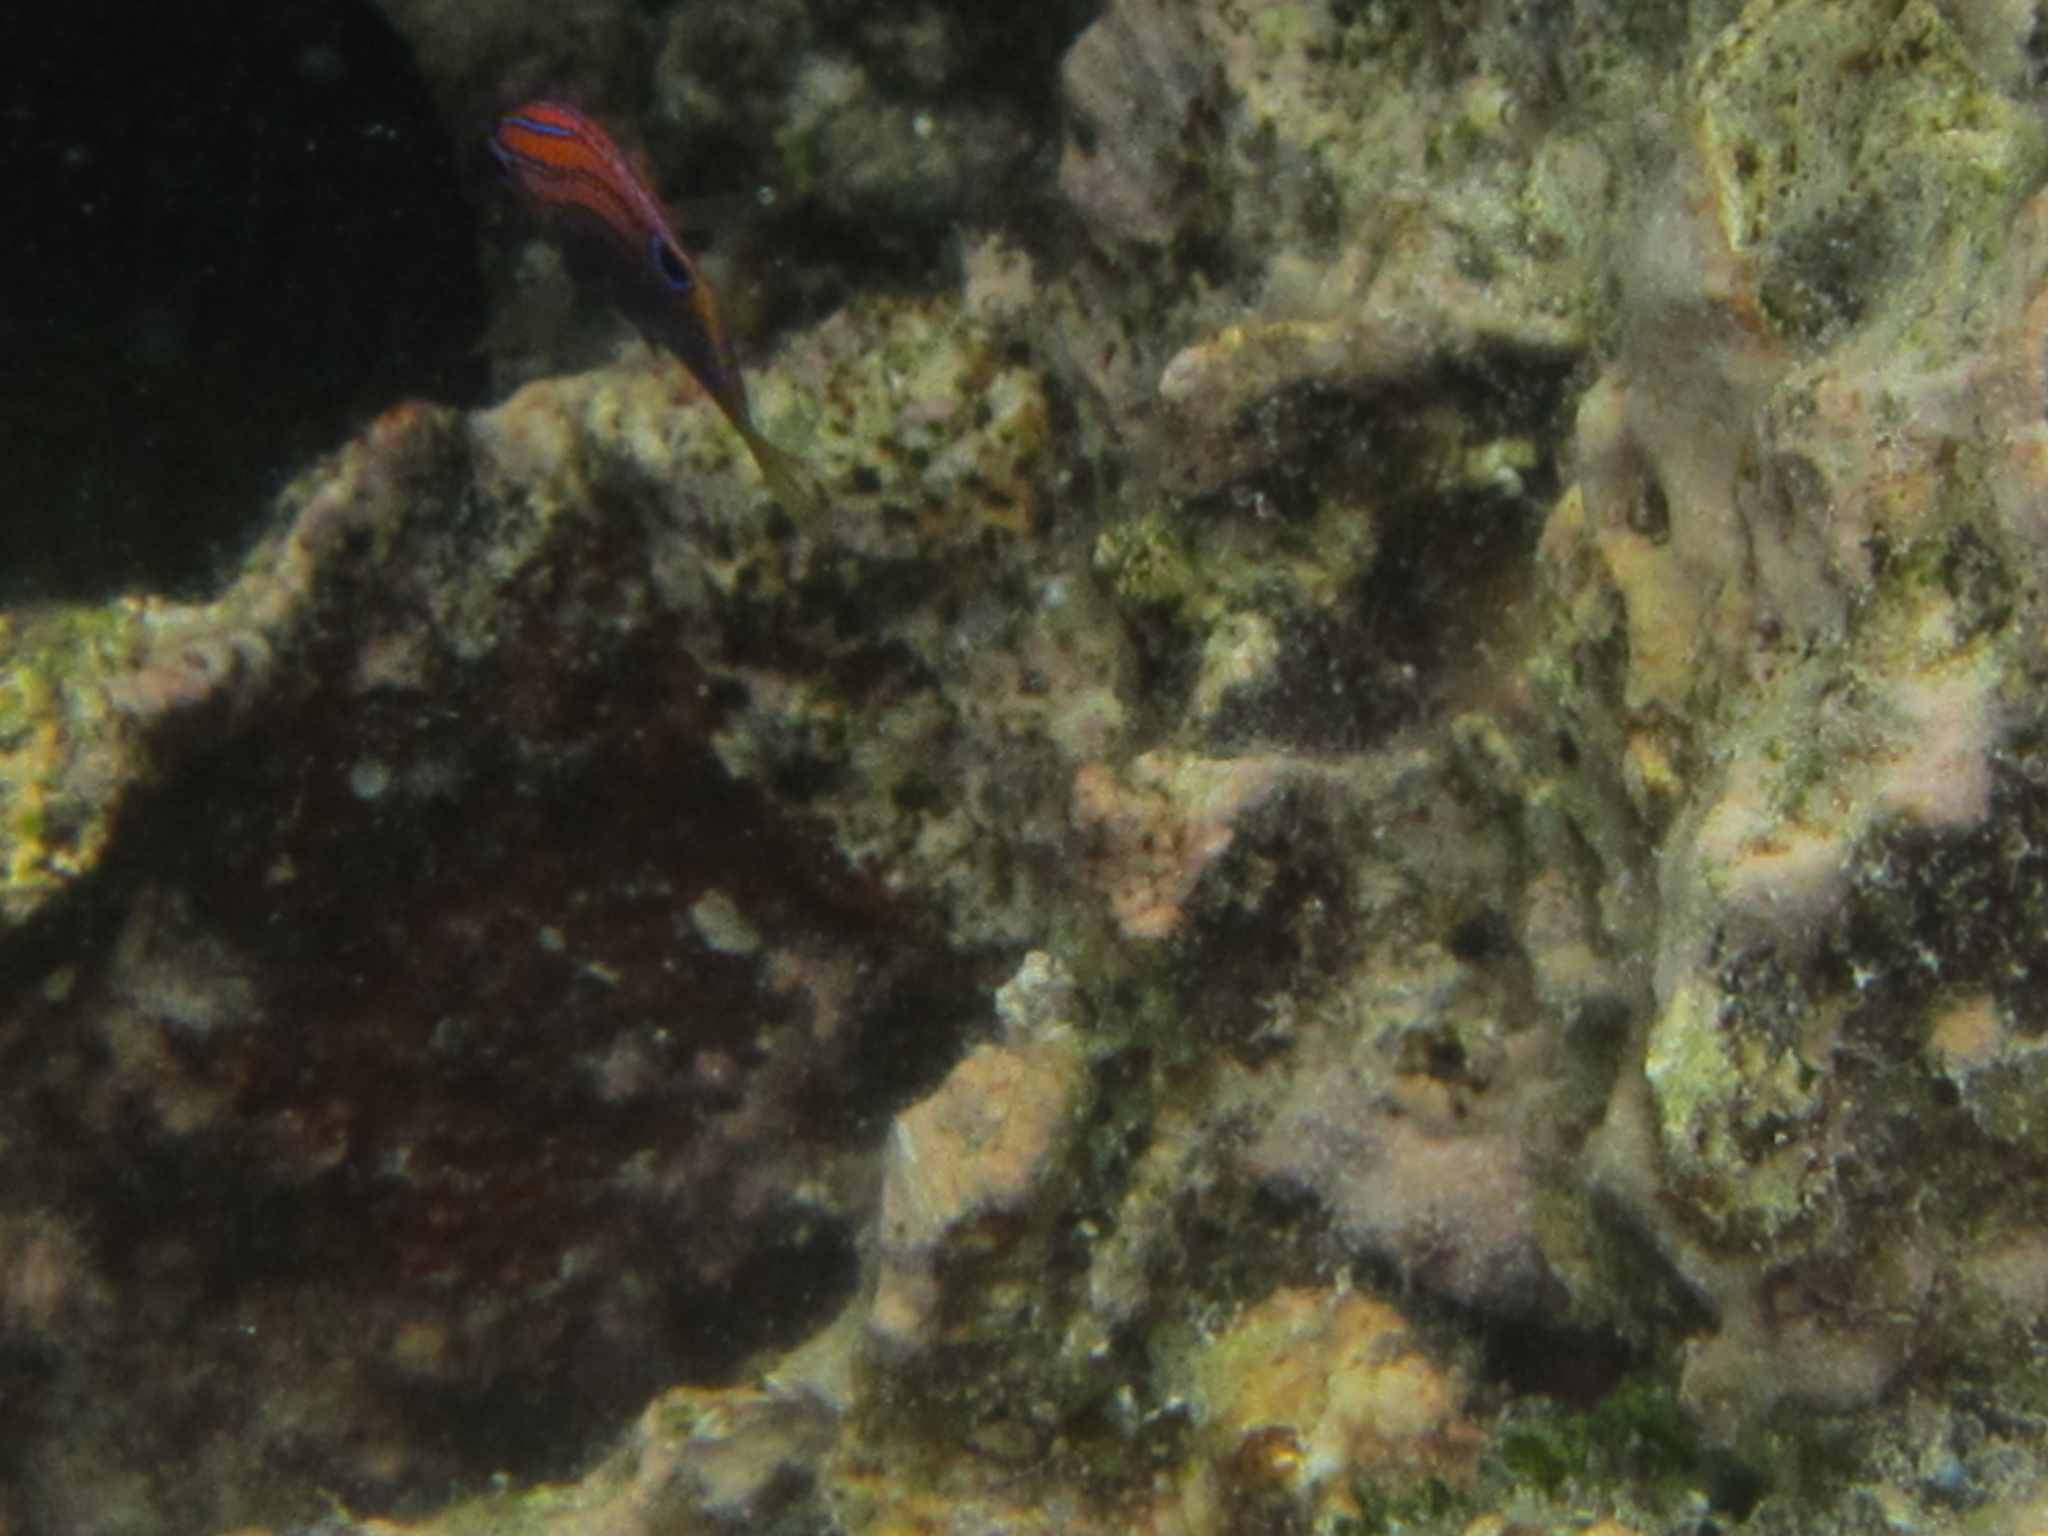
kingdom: Animalia
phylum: Chordata
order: Perciformes
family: Pomacentridae
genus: Pomacentrus
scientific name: Pomacentrus vaiuli
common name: Princess damsel
